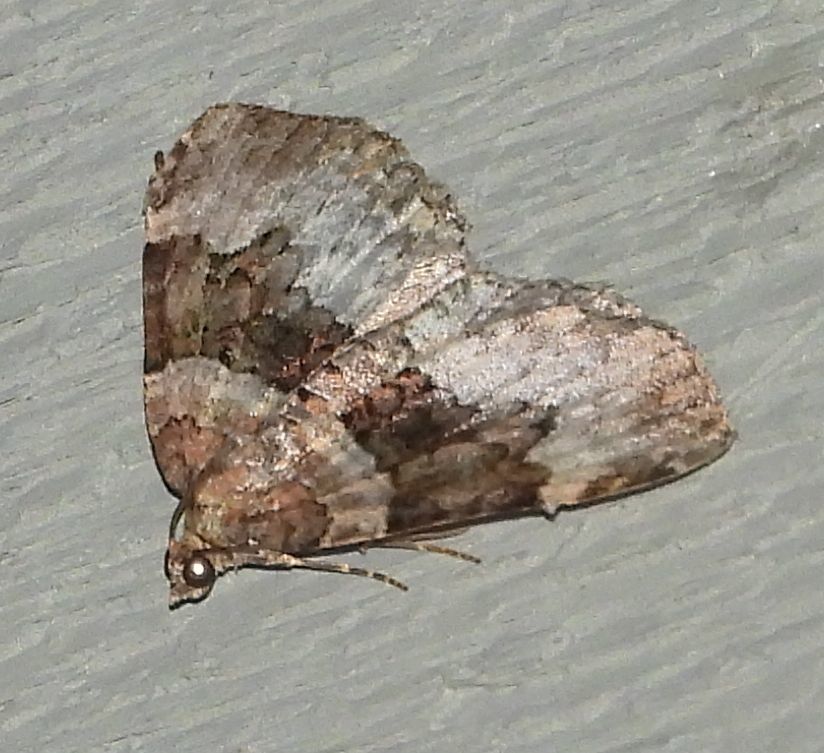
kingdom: Animalia
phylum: Arthropoda
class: Insecta
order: Lepidoptera
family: Geometridae
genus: Xanthorhoe
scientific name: Xanthorhoe lacustrata
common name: Toothed brown carpet
